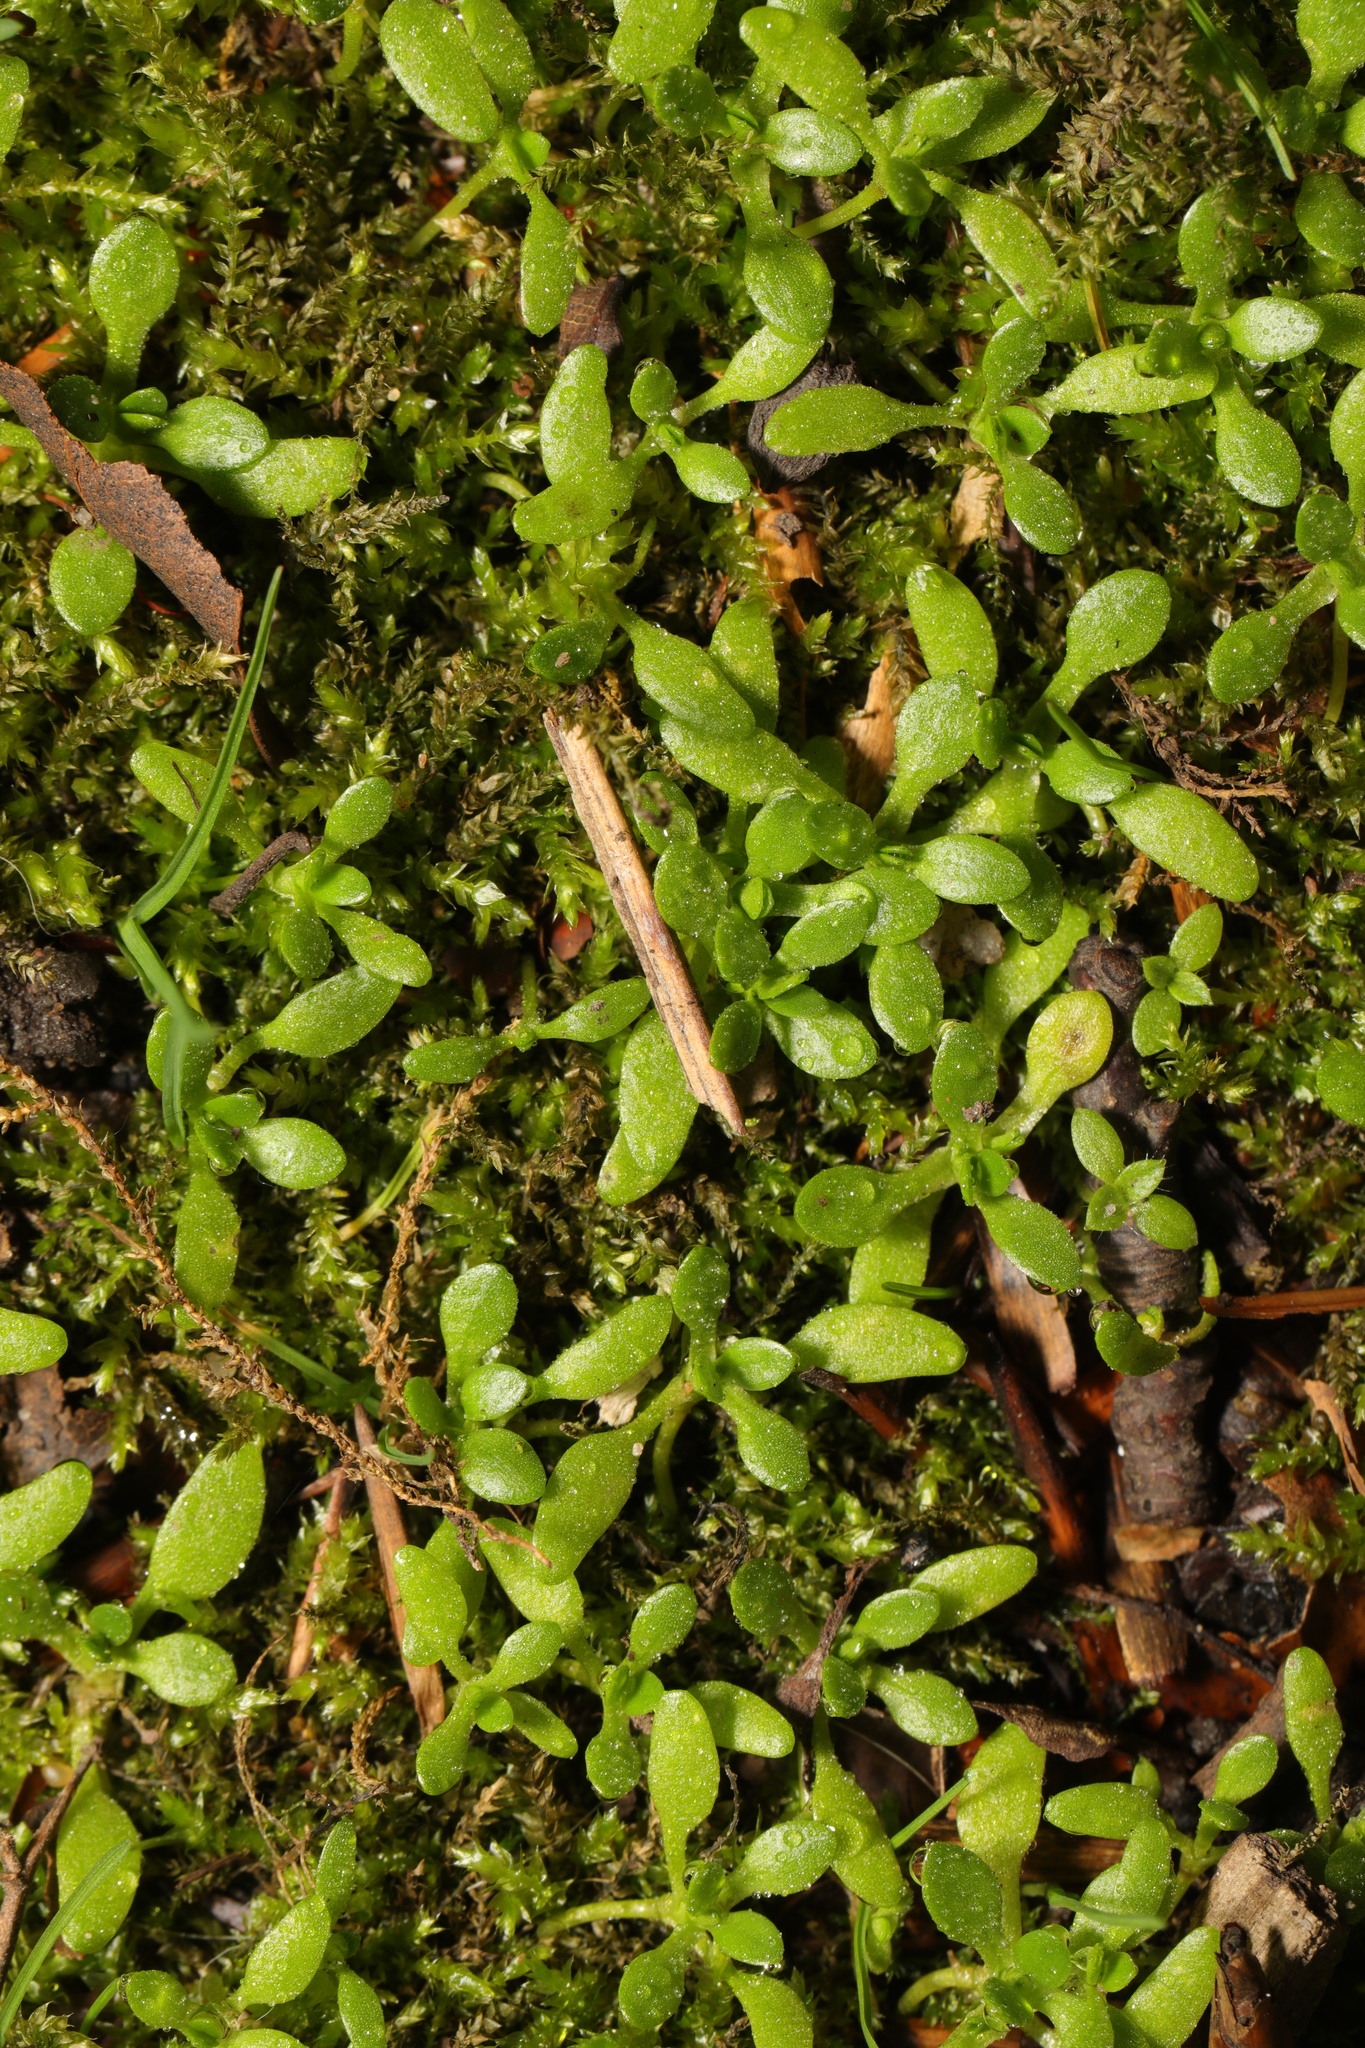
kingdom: Plantae
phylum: Tracheophyta
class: Magnoliopsida
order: Caryophyllales
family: Montiaceae
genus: Montia
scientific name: Montia fontana
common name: Blinks
